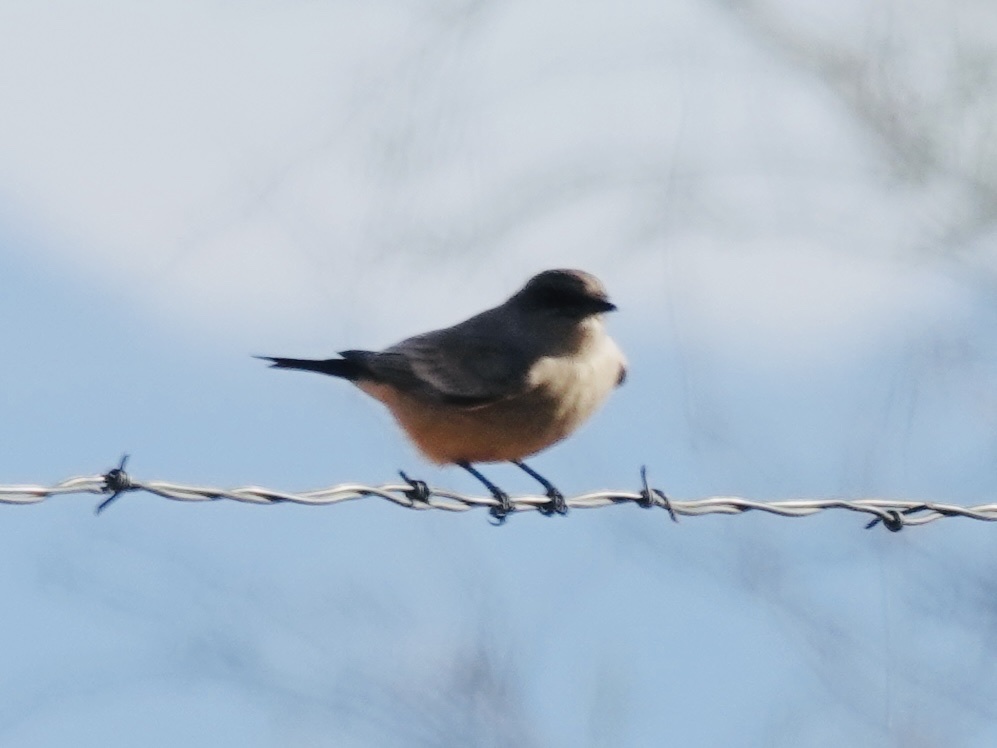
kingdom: Animalia
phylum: Chordata
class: Aves
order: Passeriformes
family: Tyrannidae
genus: Sayornis
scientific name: Sayornis saya
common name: Say's phoebe
